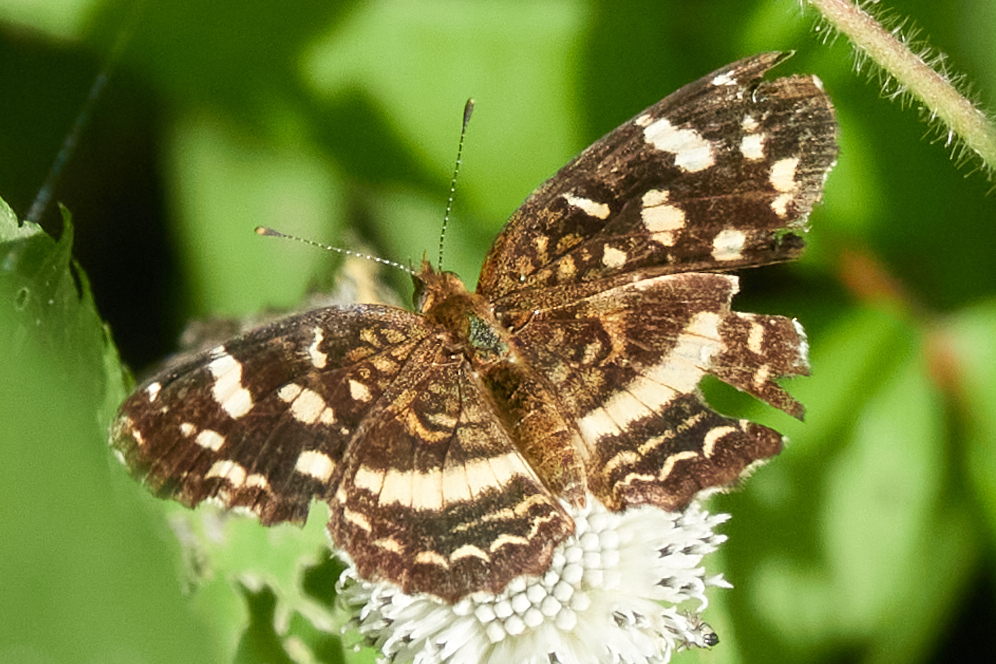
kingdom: Animalia
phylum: Arthropoda
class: Insecta
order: Lepidoptera
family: Nymphalidae
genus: Anthanassa
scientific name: Anthanassa tulcis
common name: Pale-banded crescent
